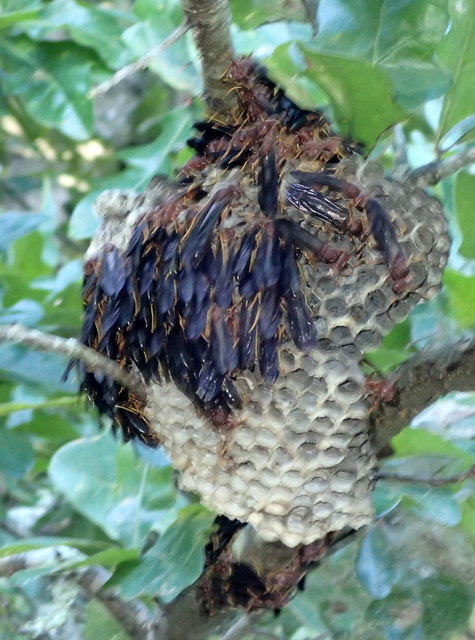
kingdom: Animalia
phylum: Arthropoda
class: Insecta
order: Hymenoptera
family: Eumenidae
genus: Polistes
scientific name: Polistes annularis
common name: Ringed paper wasp
